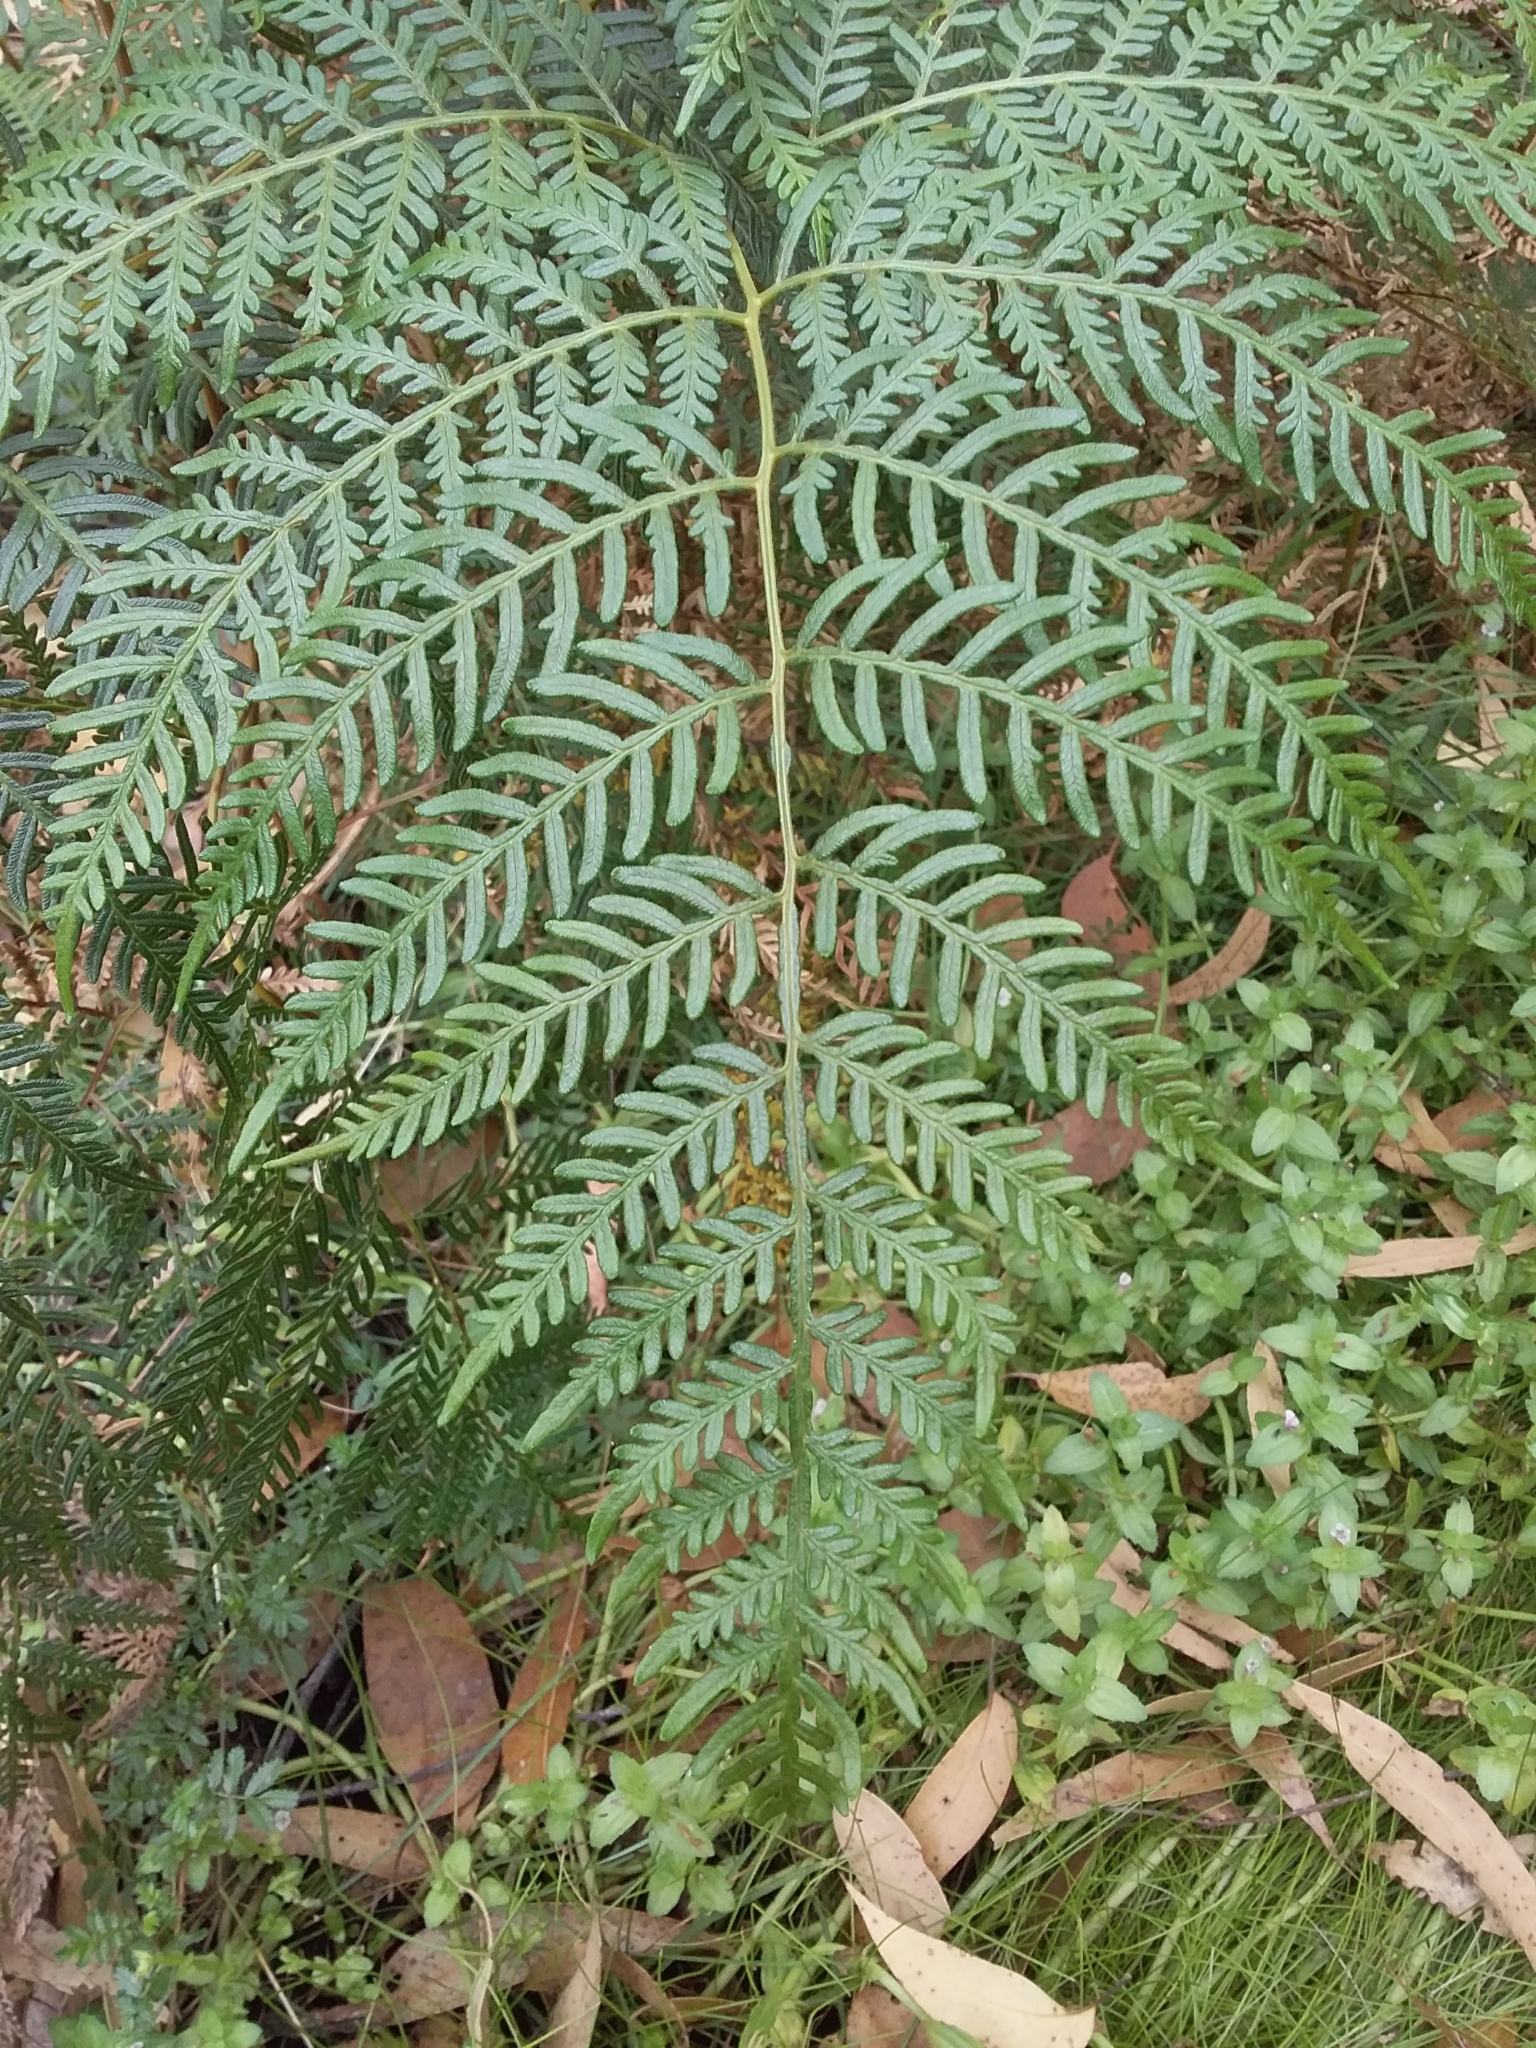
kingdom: Plantae
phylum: Tracheophyta
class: Polypodiopsida
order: Polypodiales
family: Dennstaedtiaceae
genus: Pteridium
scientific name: Pteridium esculentum
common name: Bracken fern
